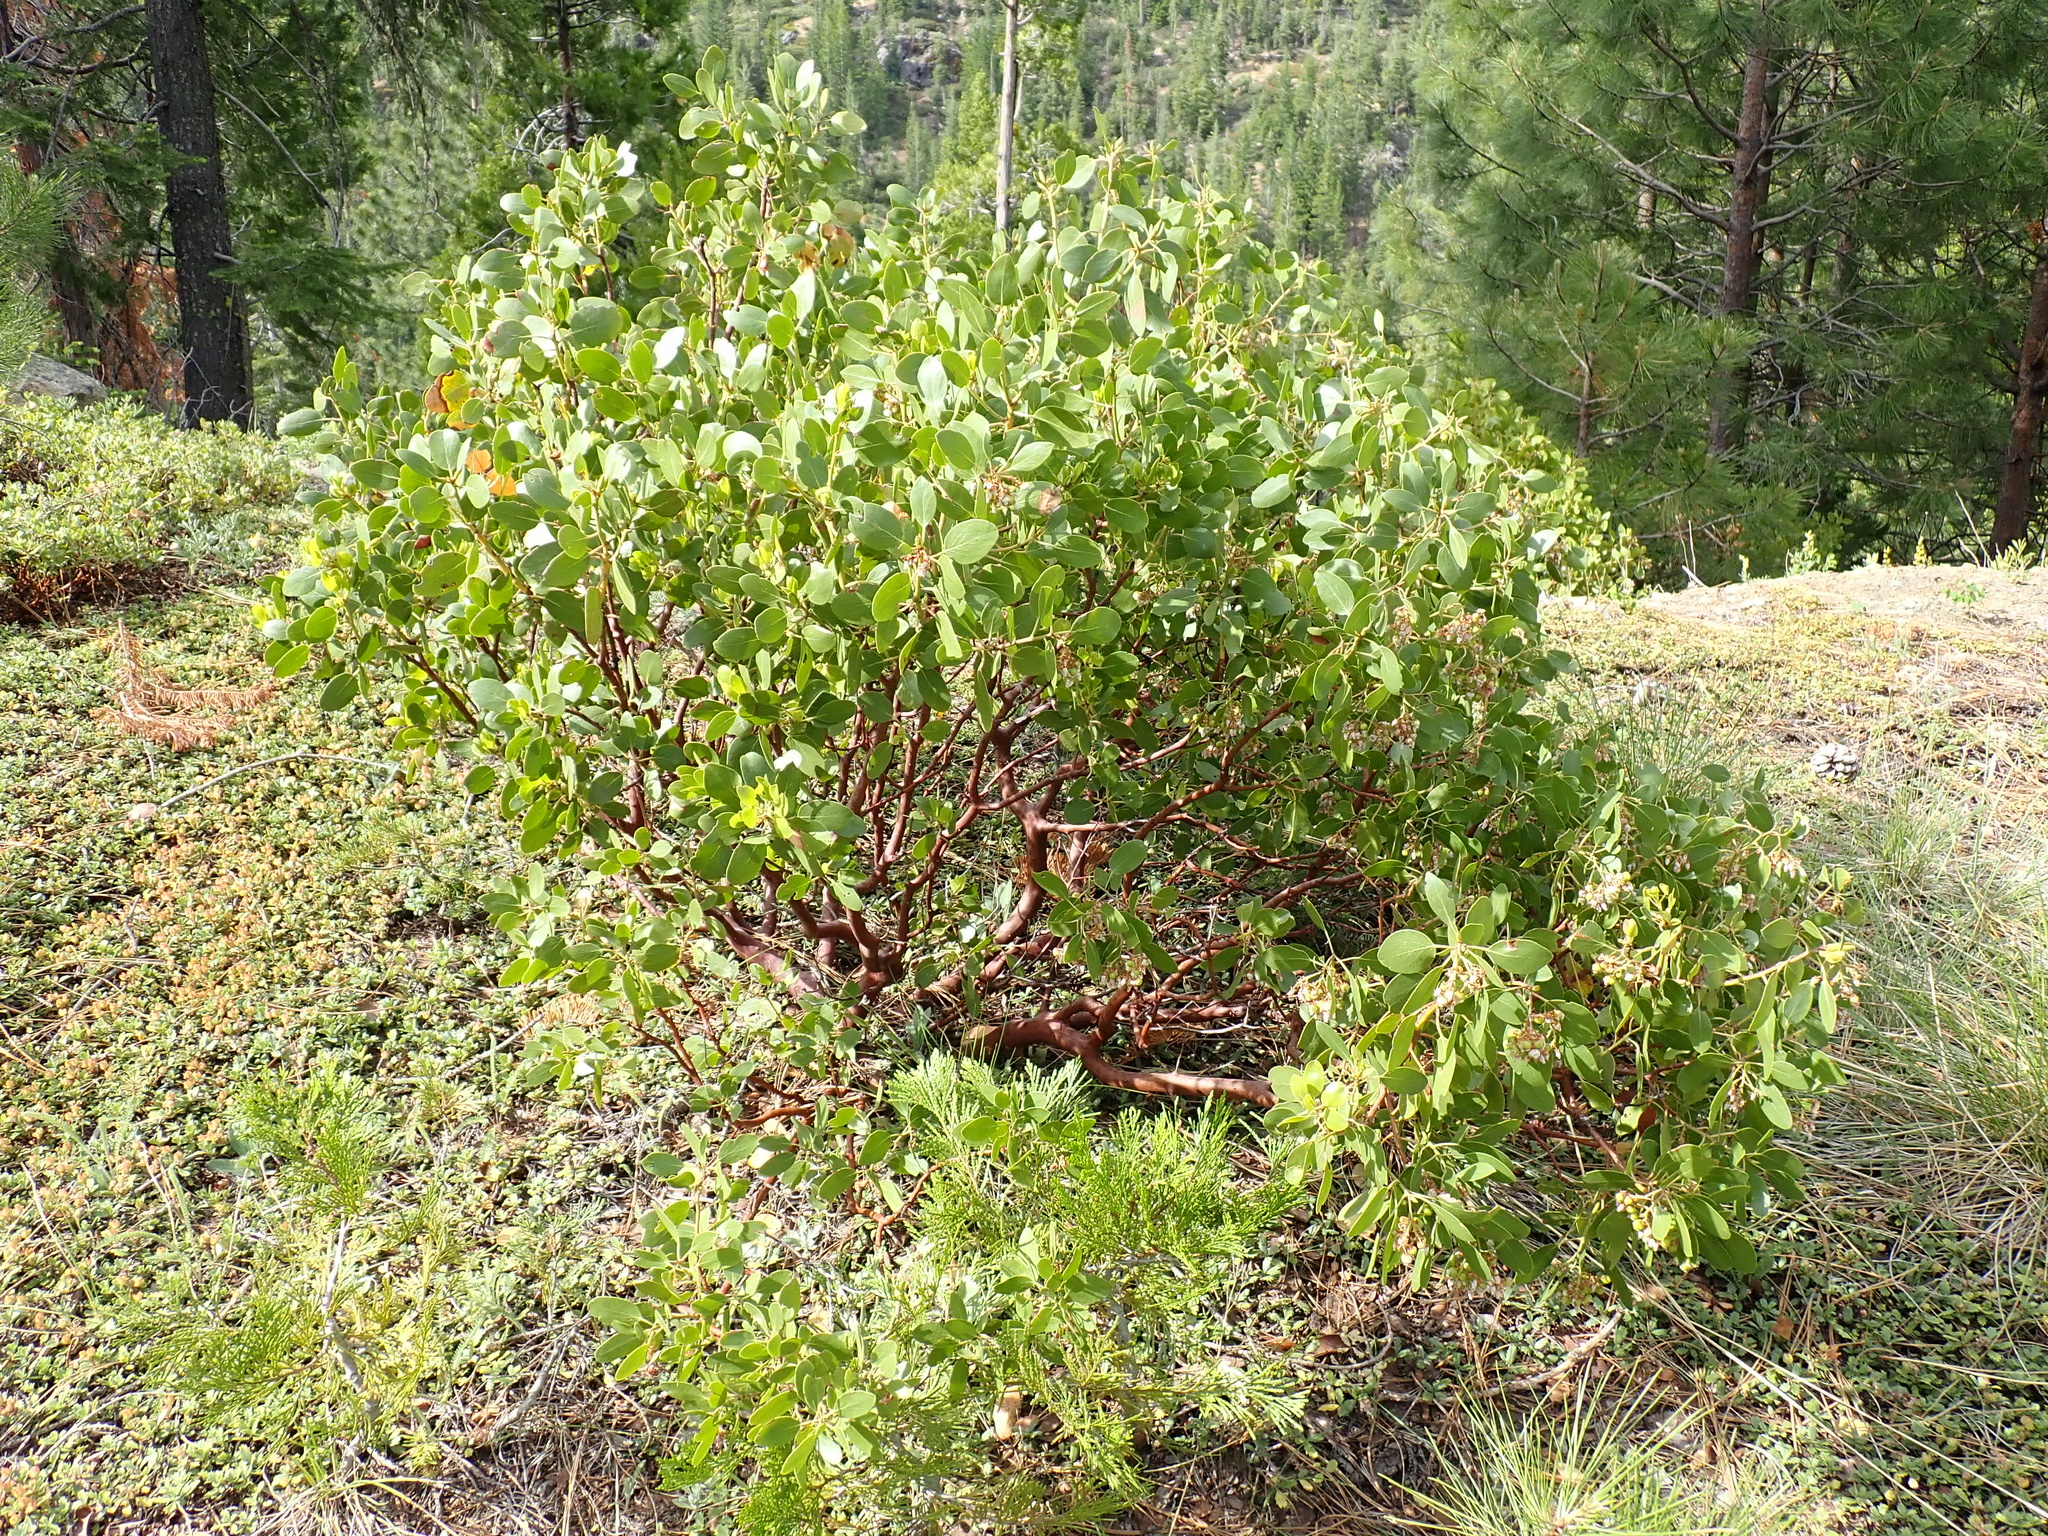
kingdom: Plantae
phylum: Tracheophyta
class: Magnoliopsida
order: Ericales
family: Ericaceae
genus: Arctostaphylos
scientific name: Arctostaphylos patula
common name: Green-leaf manzanita
